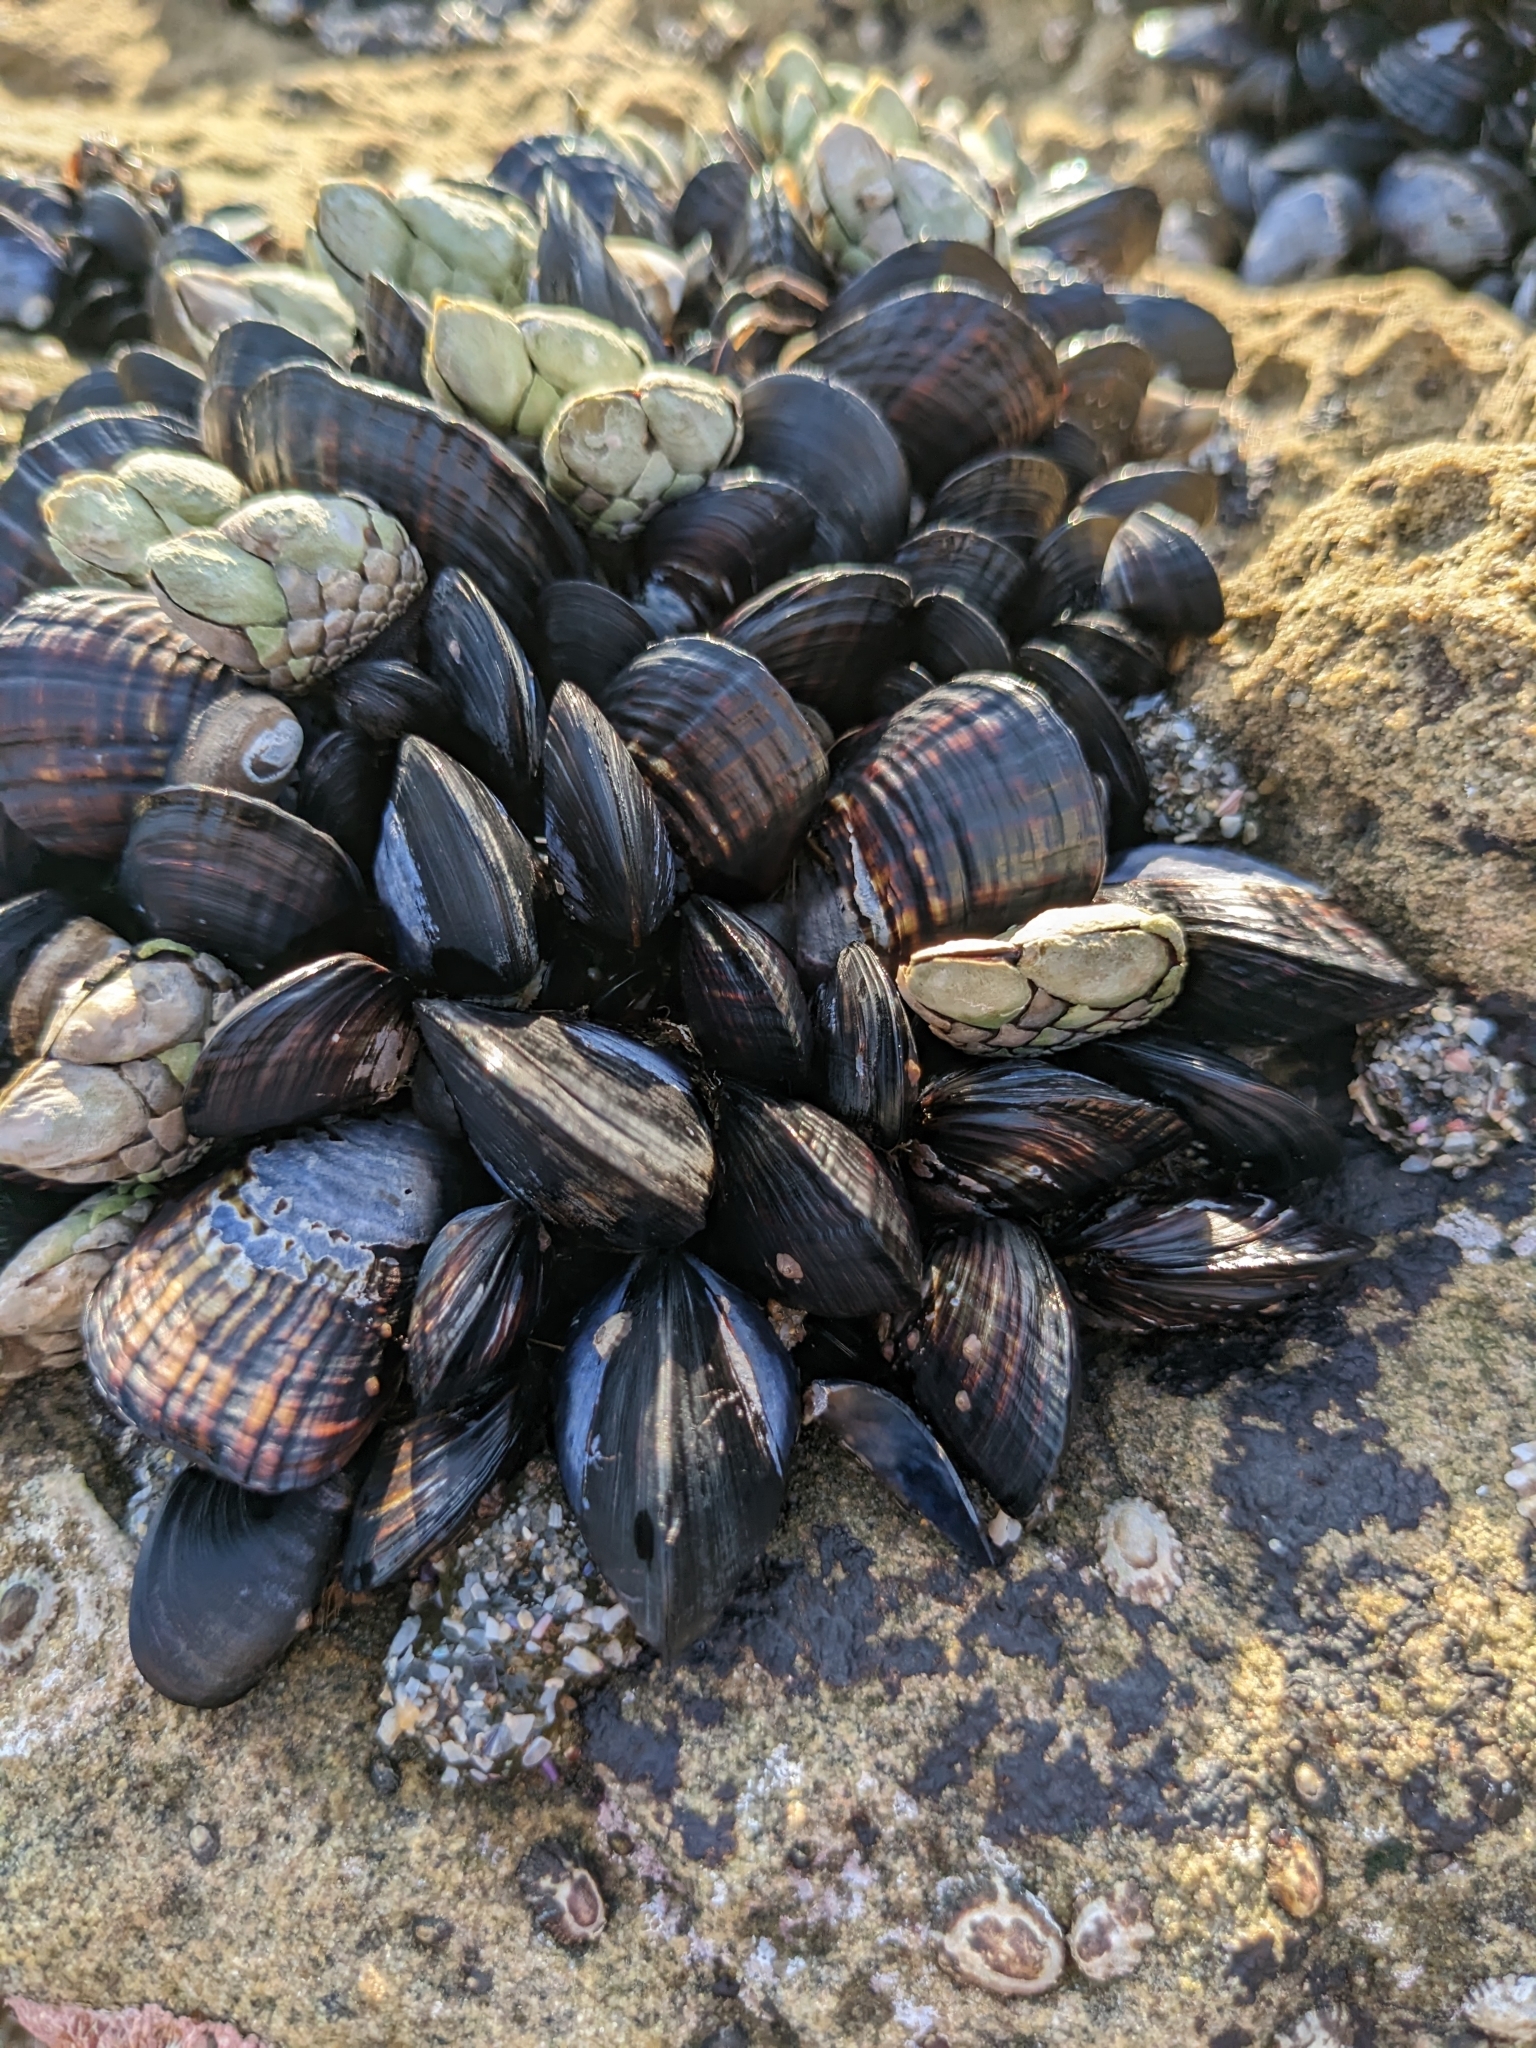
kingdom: Animalia
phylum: Mollusca
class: Bivalvia
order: Mytilida
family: Mytilidae
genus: Mytilus
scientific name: Mytilus californianus
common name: California mussel
